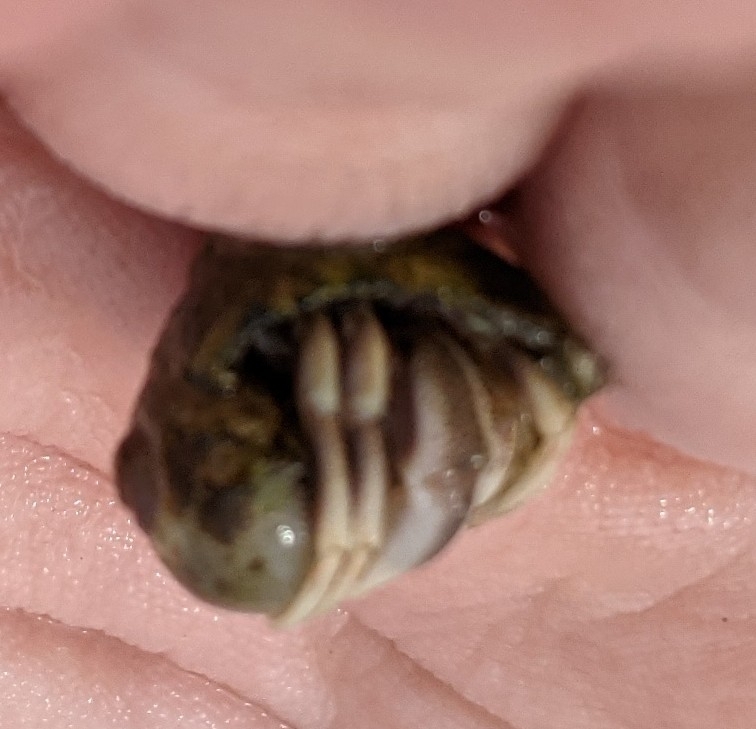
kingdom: Animalia
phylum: Arthropoda
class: Malacostraca
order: Decapoda
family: Paguridae
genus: Pagurus
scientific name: Pagurus longicarpus
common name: Long-armed hermit crab
